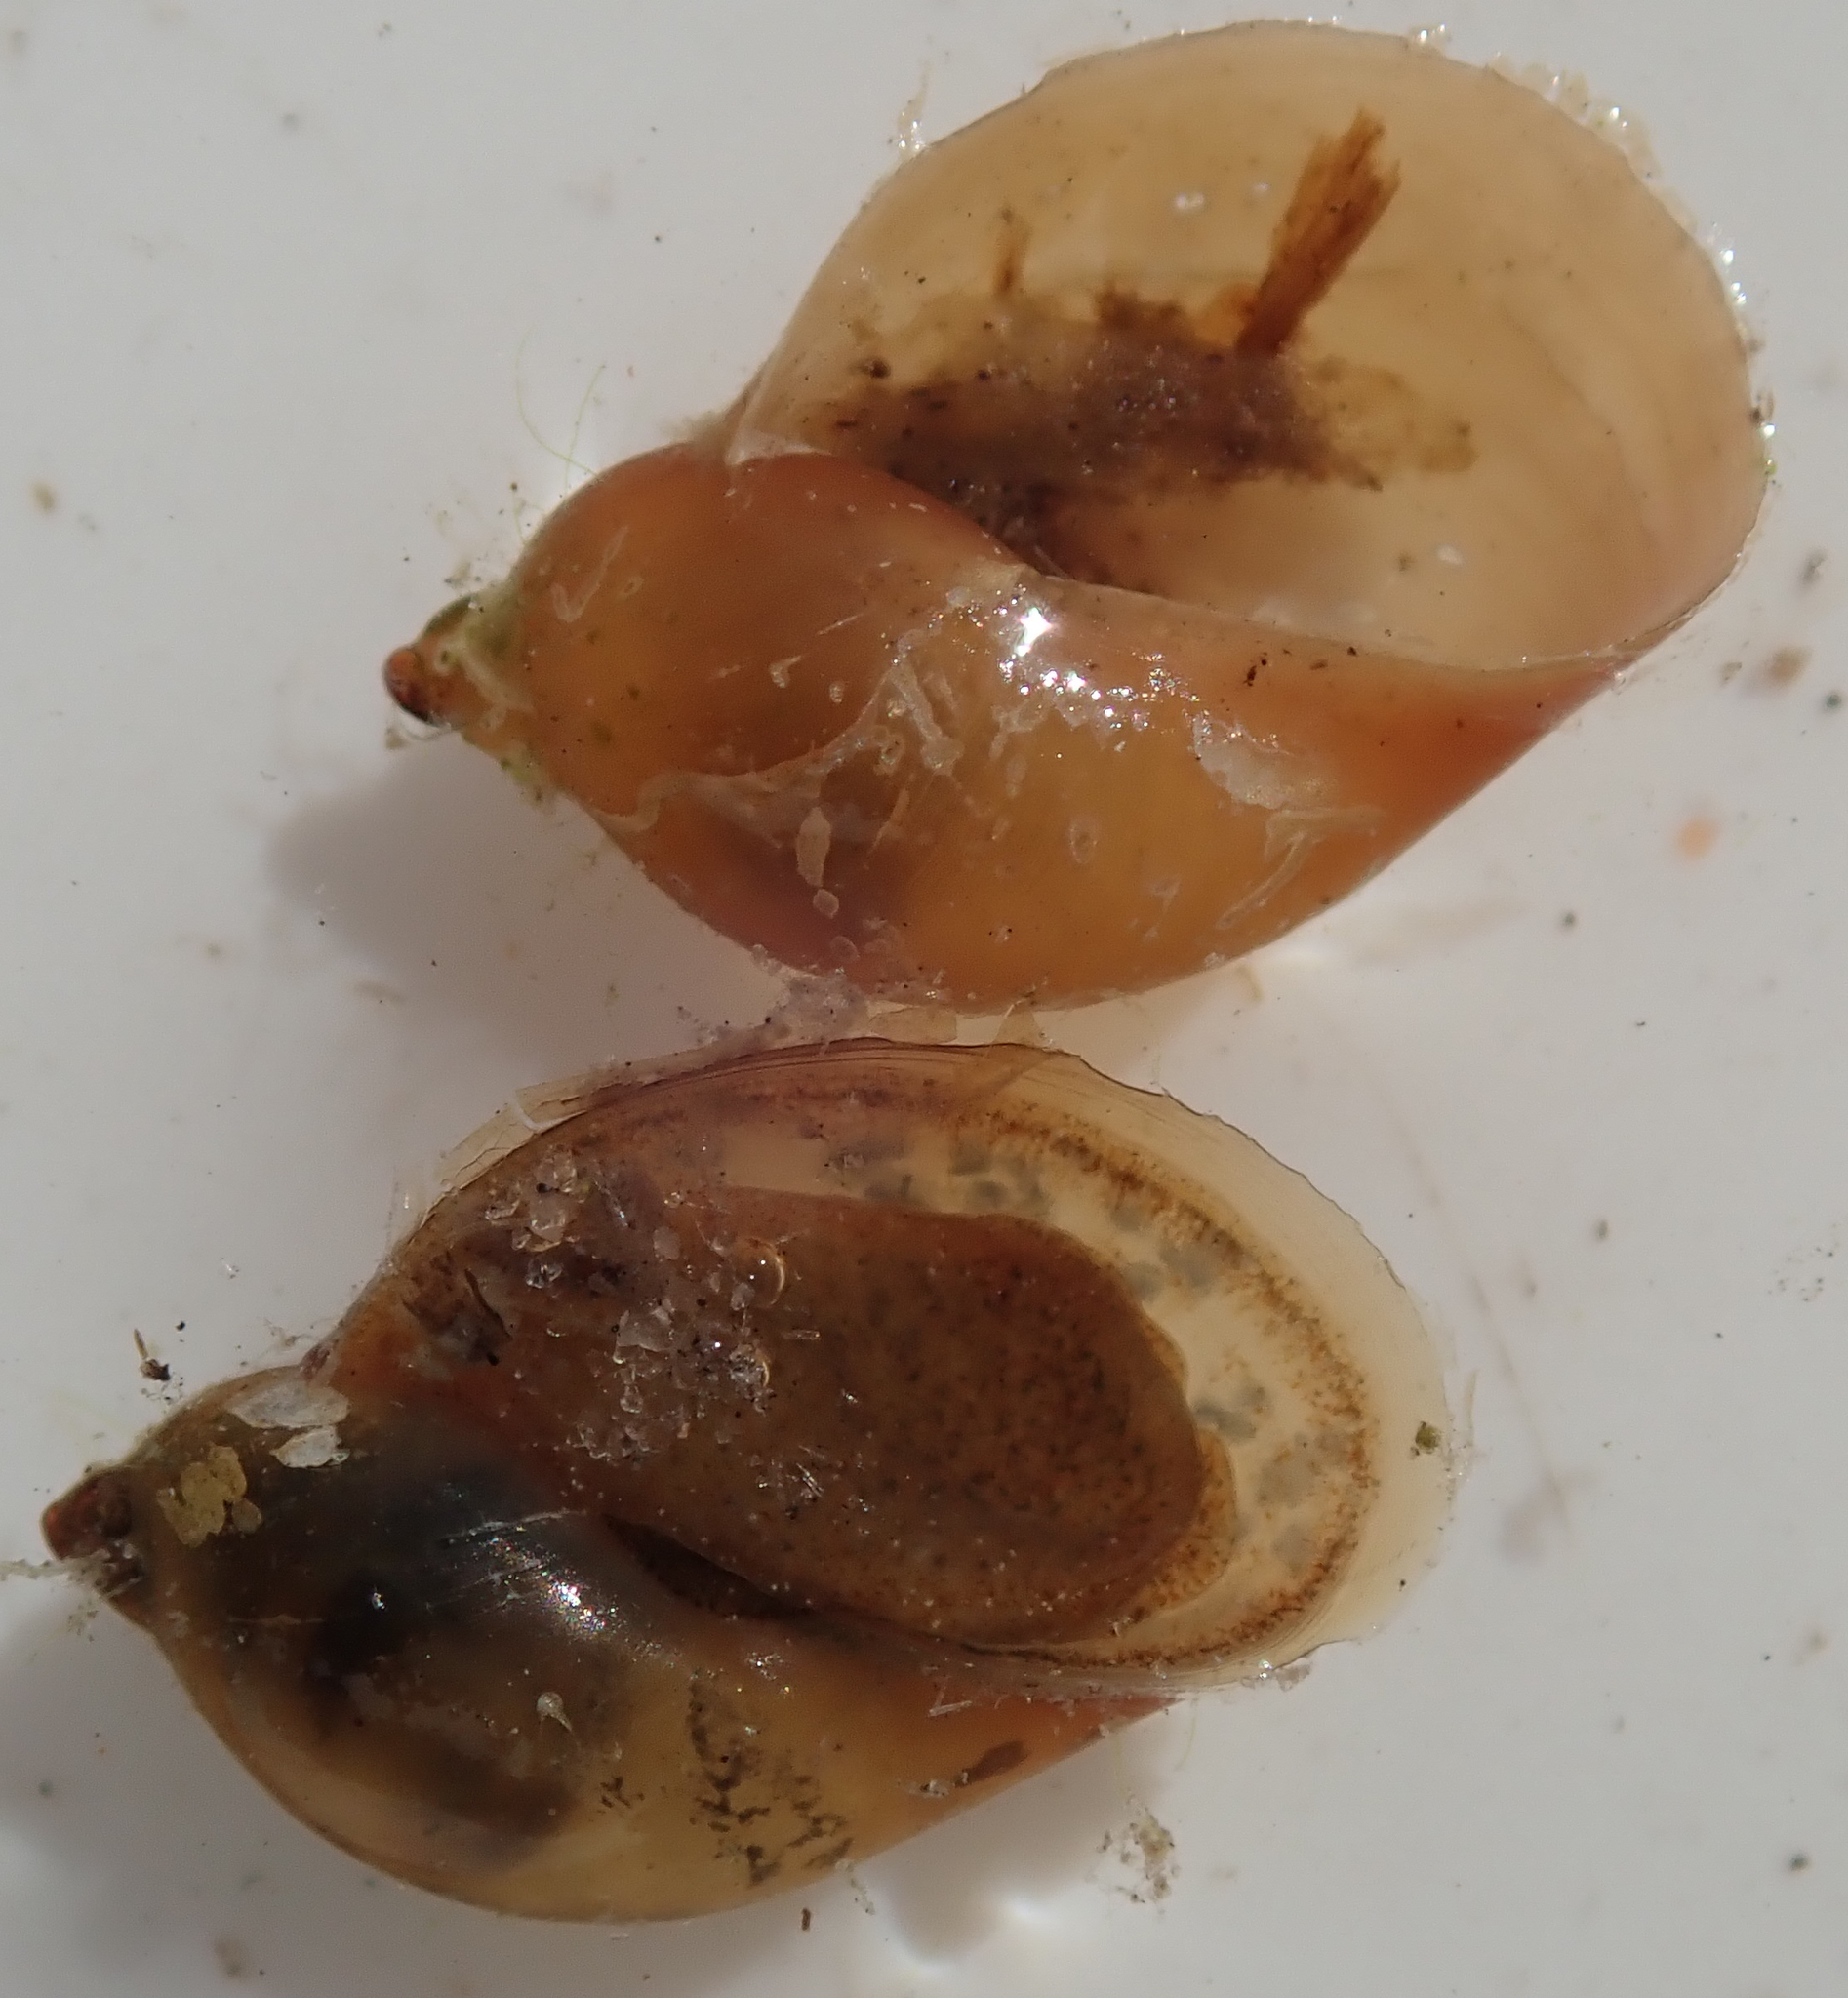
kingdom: Animalia
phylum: Mollusca
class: Gastropoda
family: Lymnaeidae
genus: Radix
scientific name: Radix natalensis
